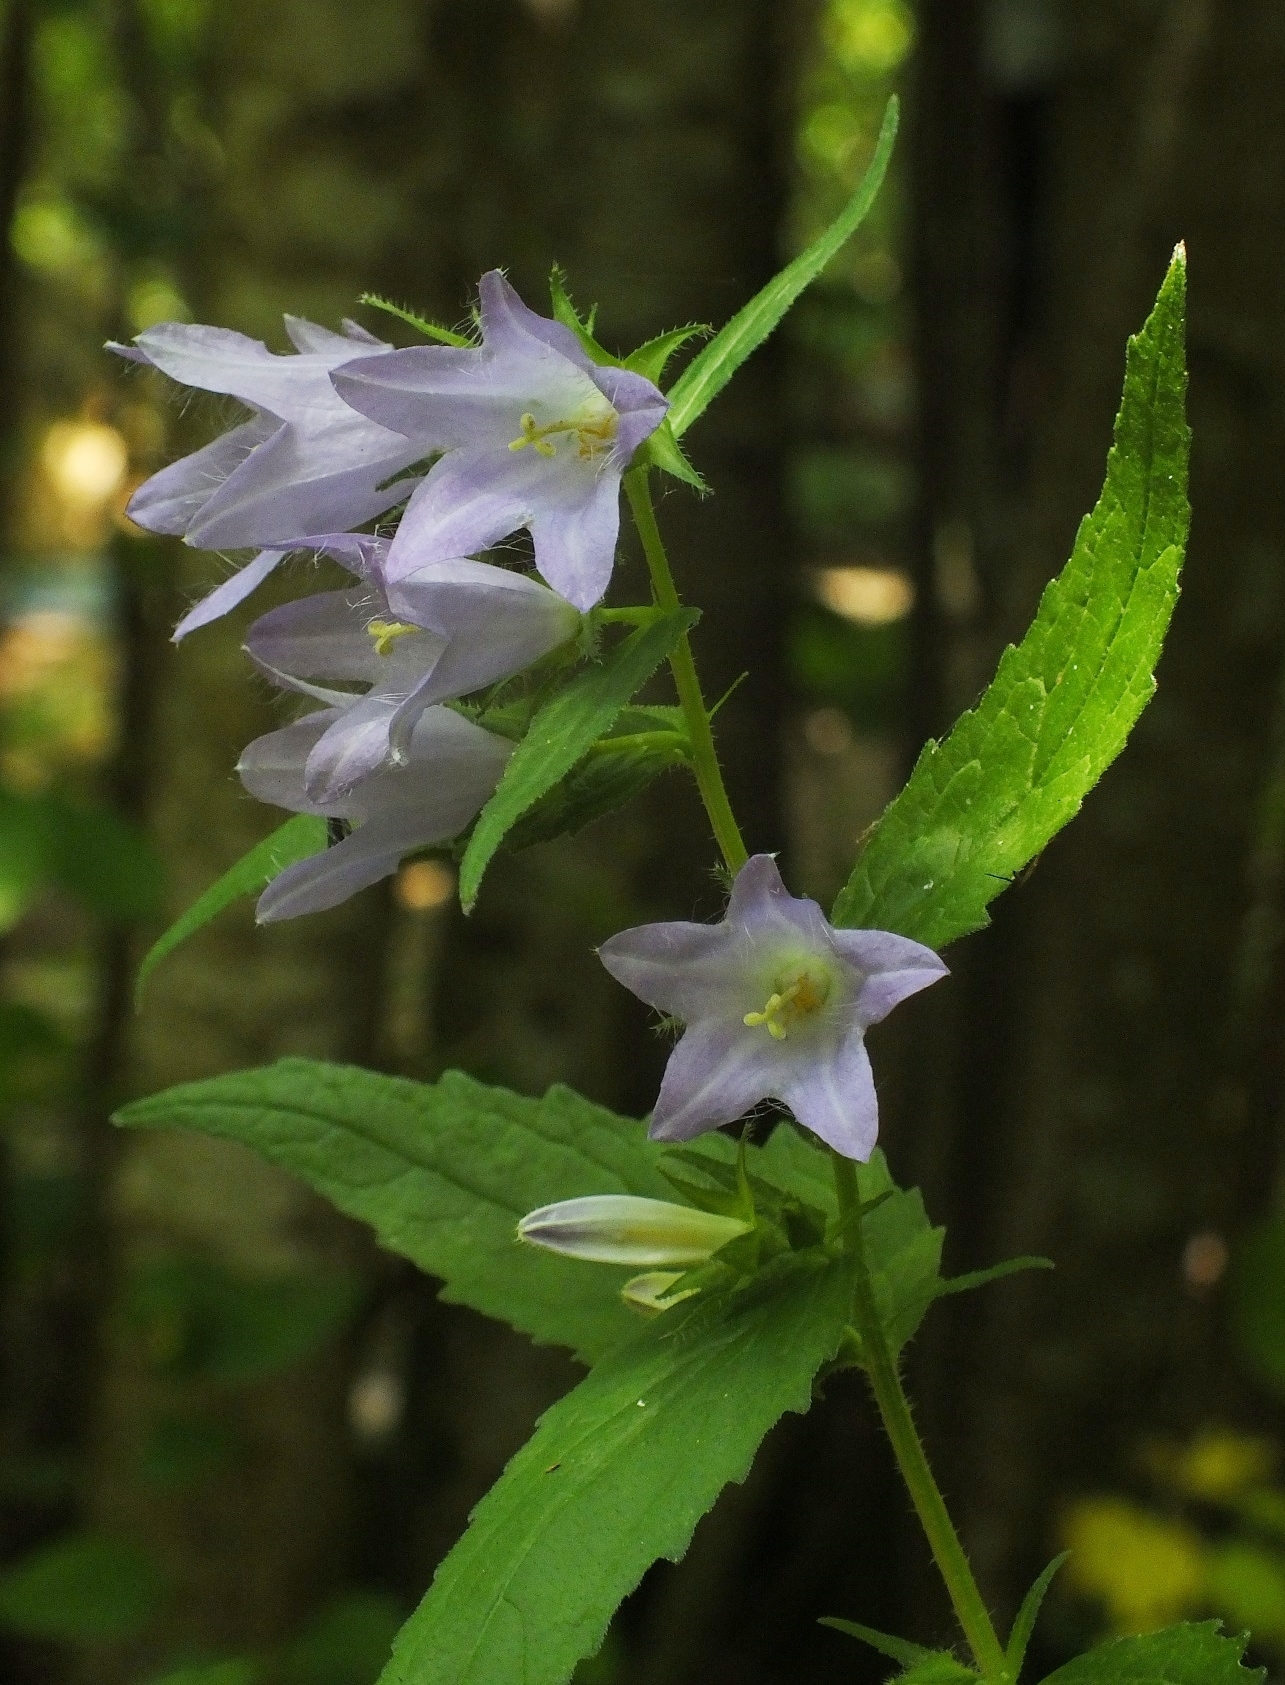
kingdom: Plantae
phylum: Tracheophyta
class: Magnoliopsida
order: Asterales
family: Campanulaceae
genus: Campanula
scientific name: Campanula trachelium
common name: Nettle-leaved bellflower
